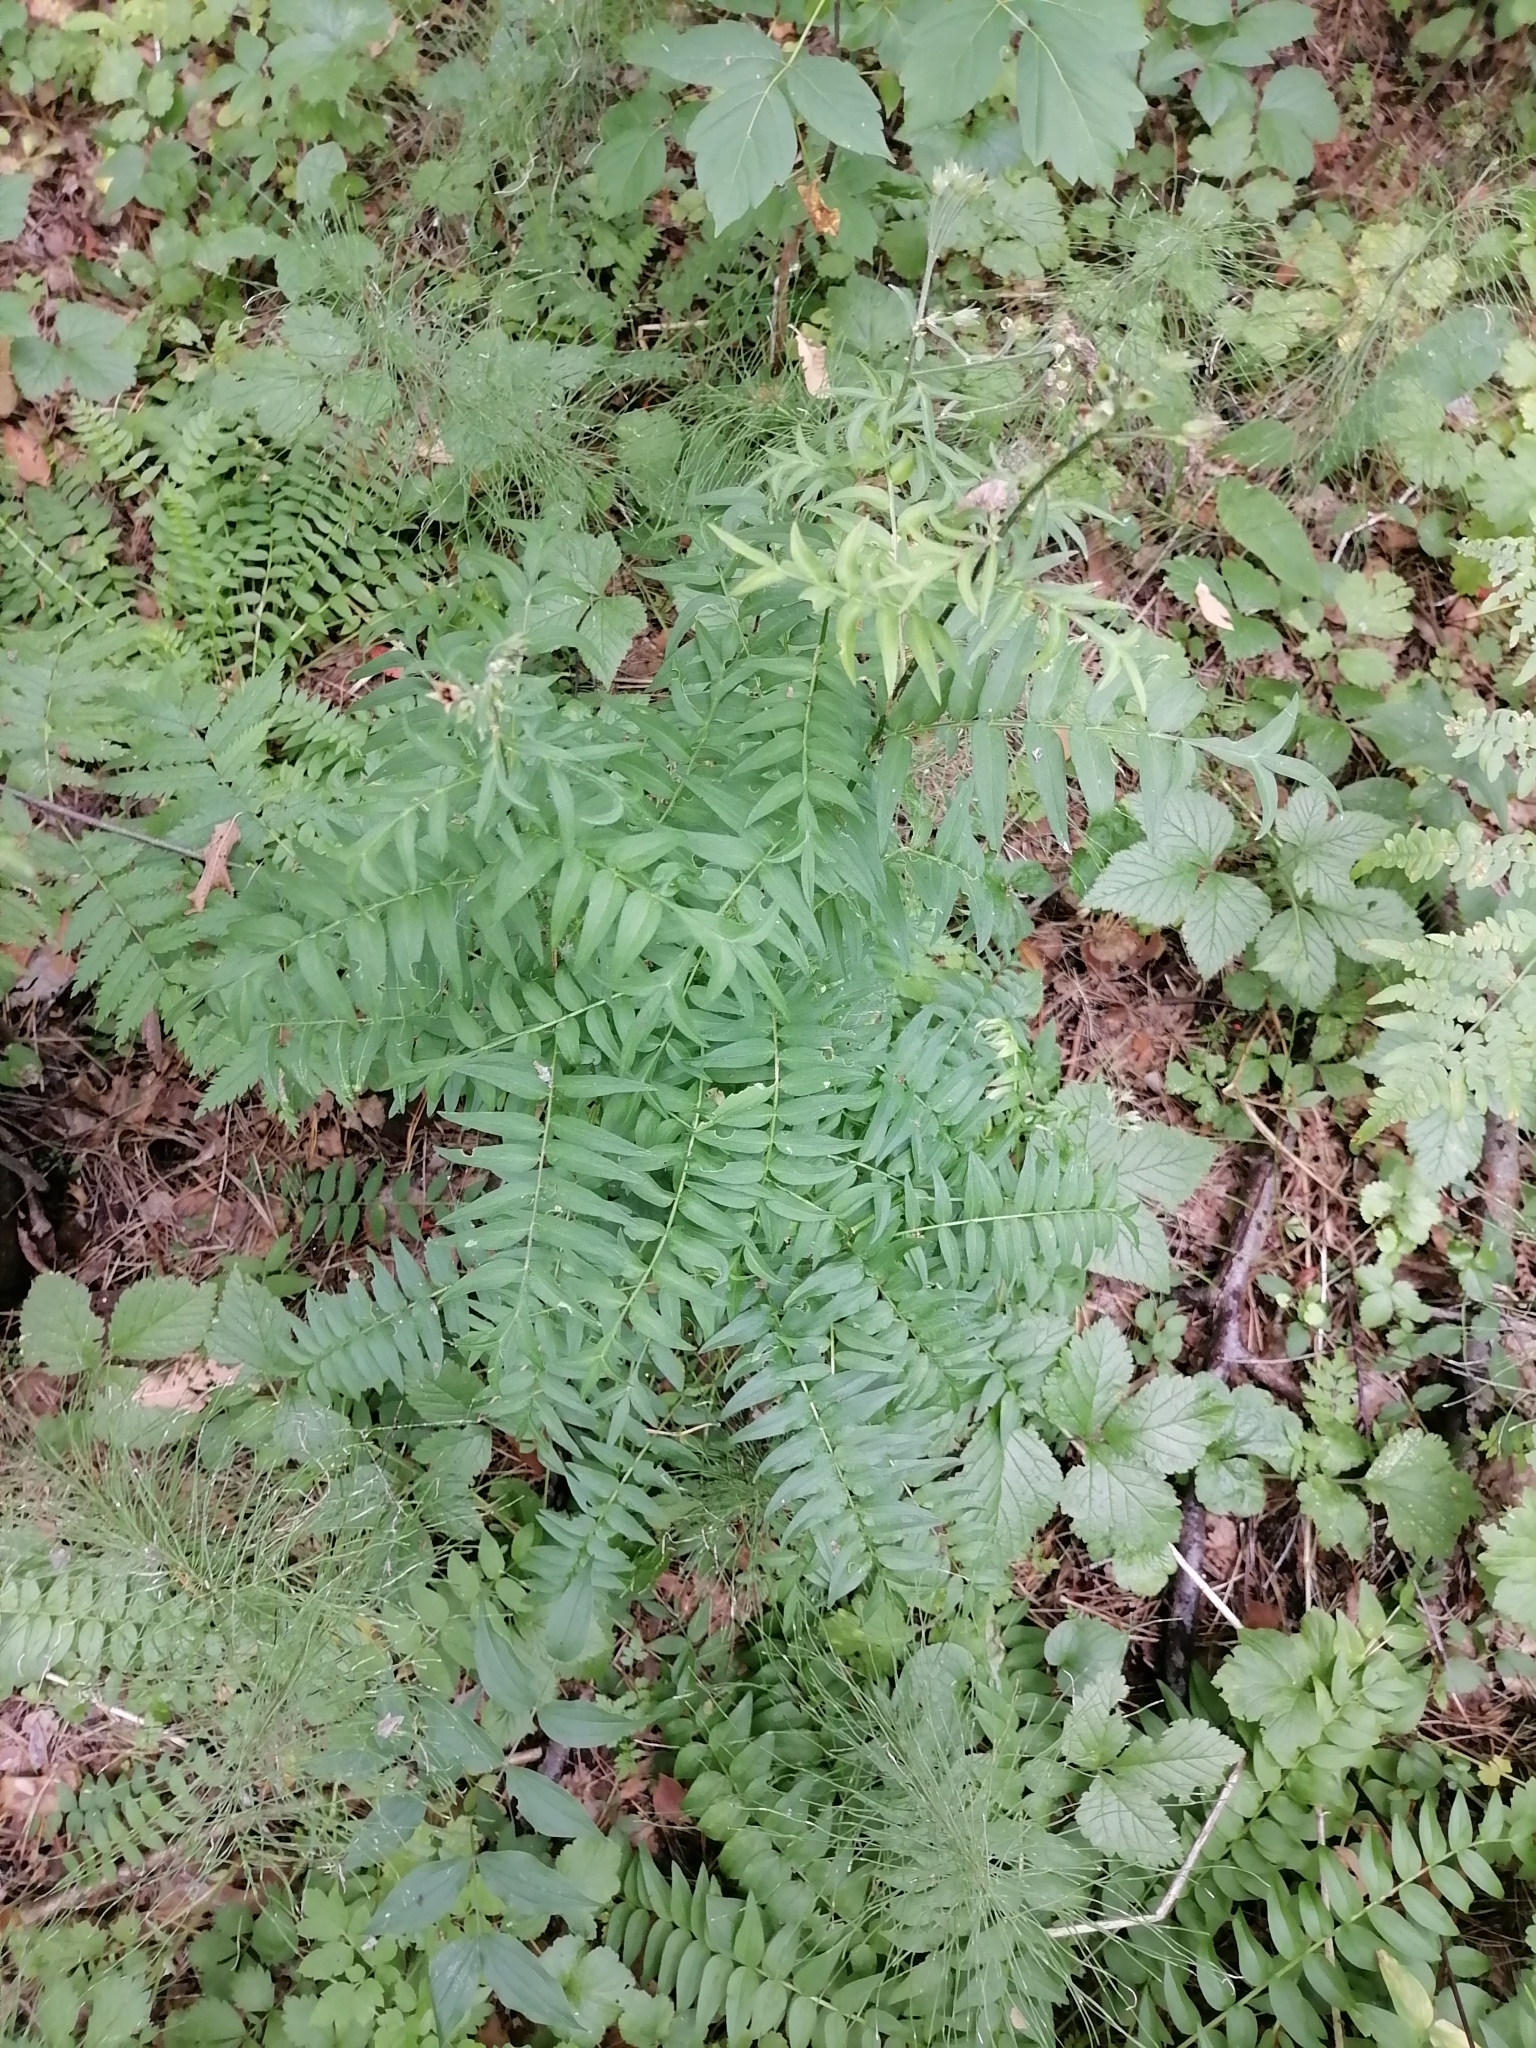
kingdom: Plantae
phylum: Tracheophyta
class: Magnoliopsida
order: Ericales
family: Polemoniaceae
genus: Polemonium
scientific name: Polemonium caeruleum
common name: Jacob's-ladder
